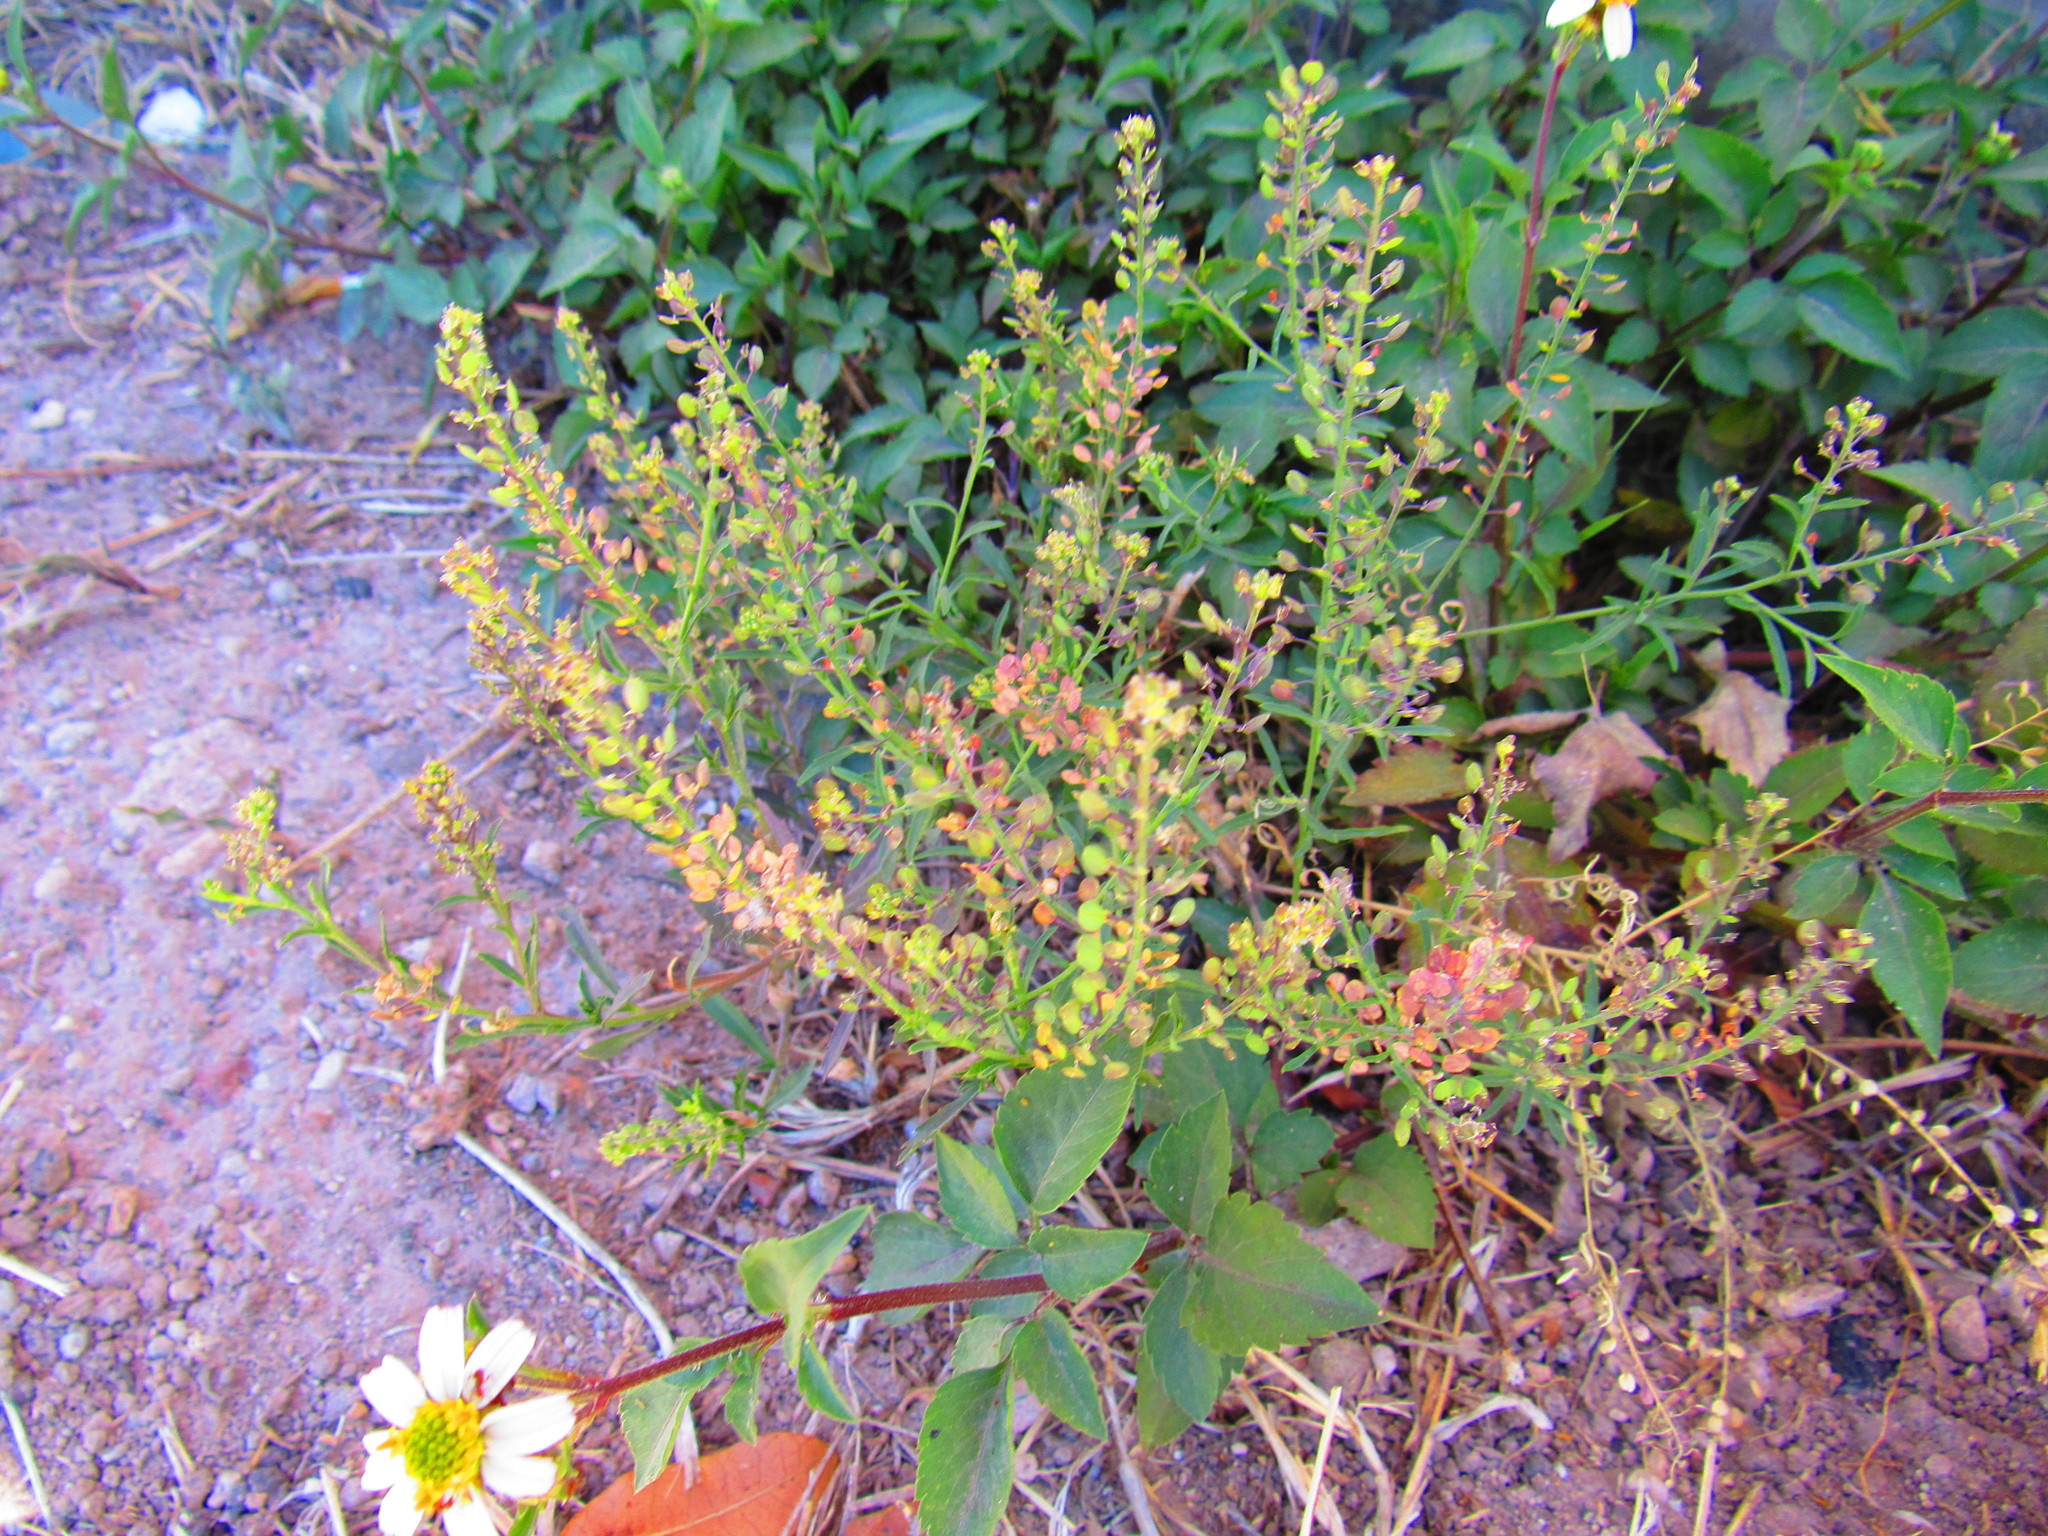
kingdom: Plantae
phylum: Tracheophyta
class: Magnoliopsida
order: Brassicales
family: Brassicaceae
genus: Lepidium
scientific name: Lepidium virginicum
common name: Least pepperwort
